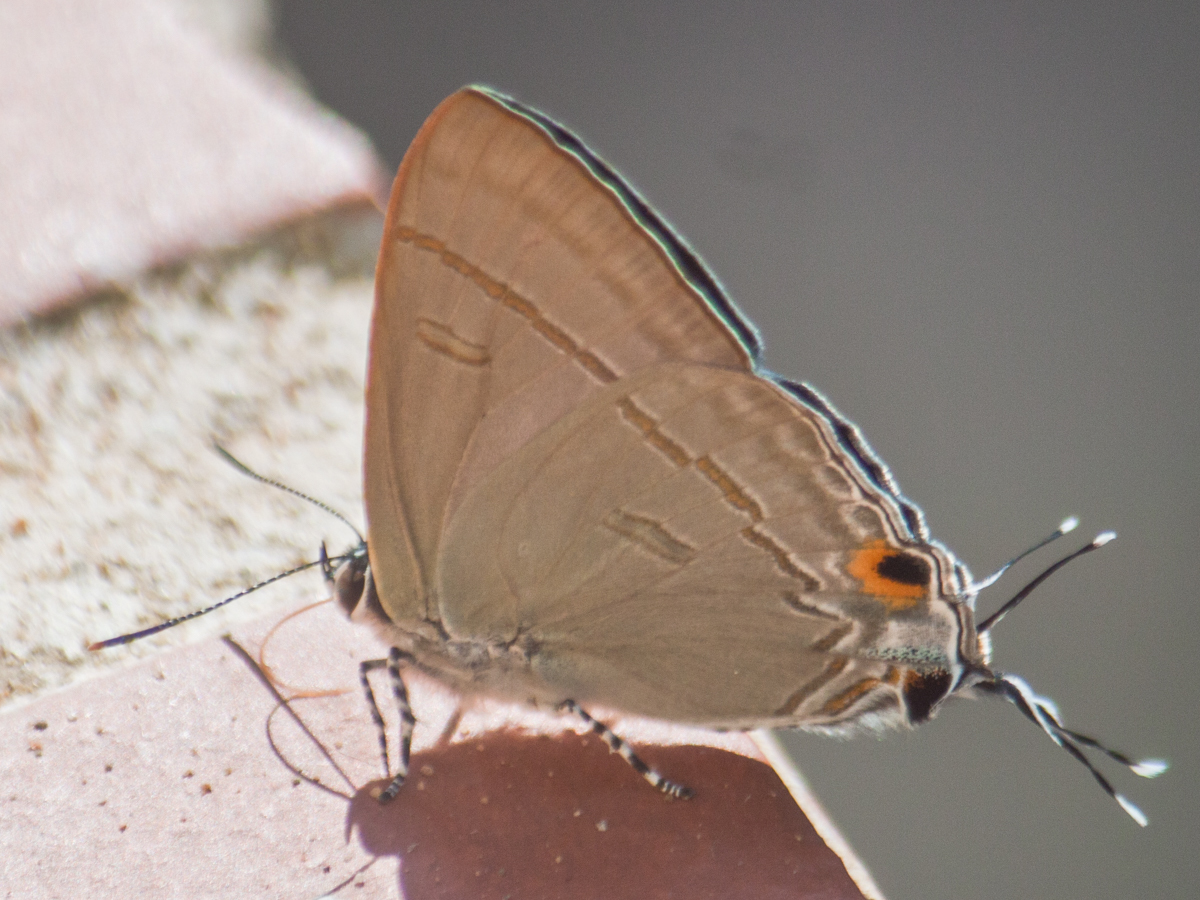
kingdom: Animalia
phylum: Arthropoda
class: Insecta
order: Lepidoptera
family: Lycaenidae
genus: Hypolycaena
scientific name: Hypolycaena erylus
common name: Common tit
